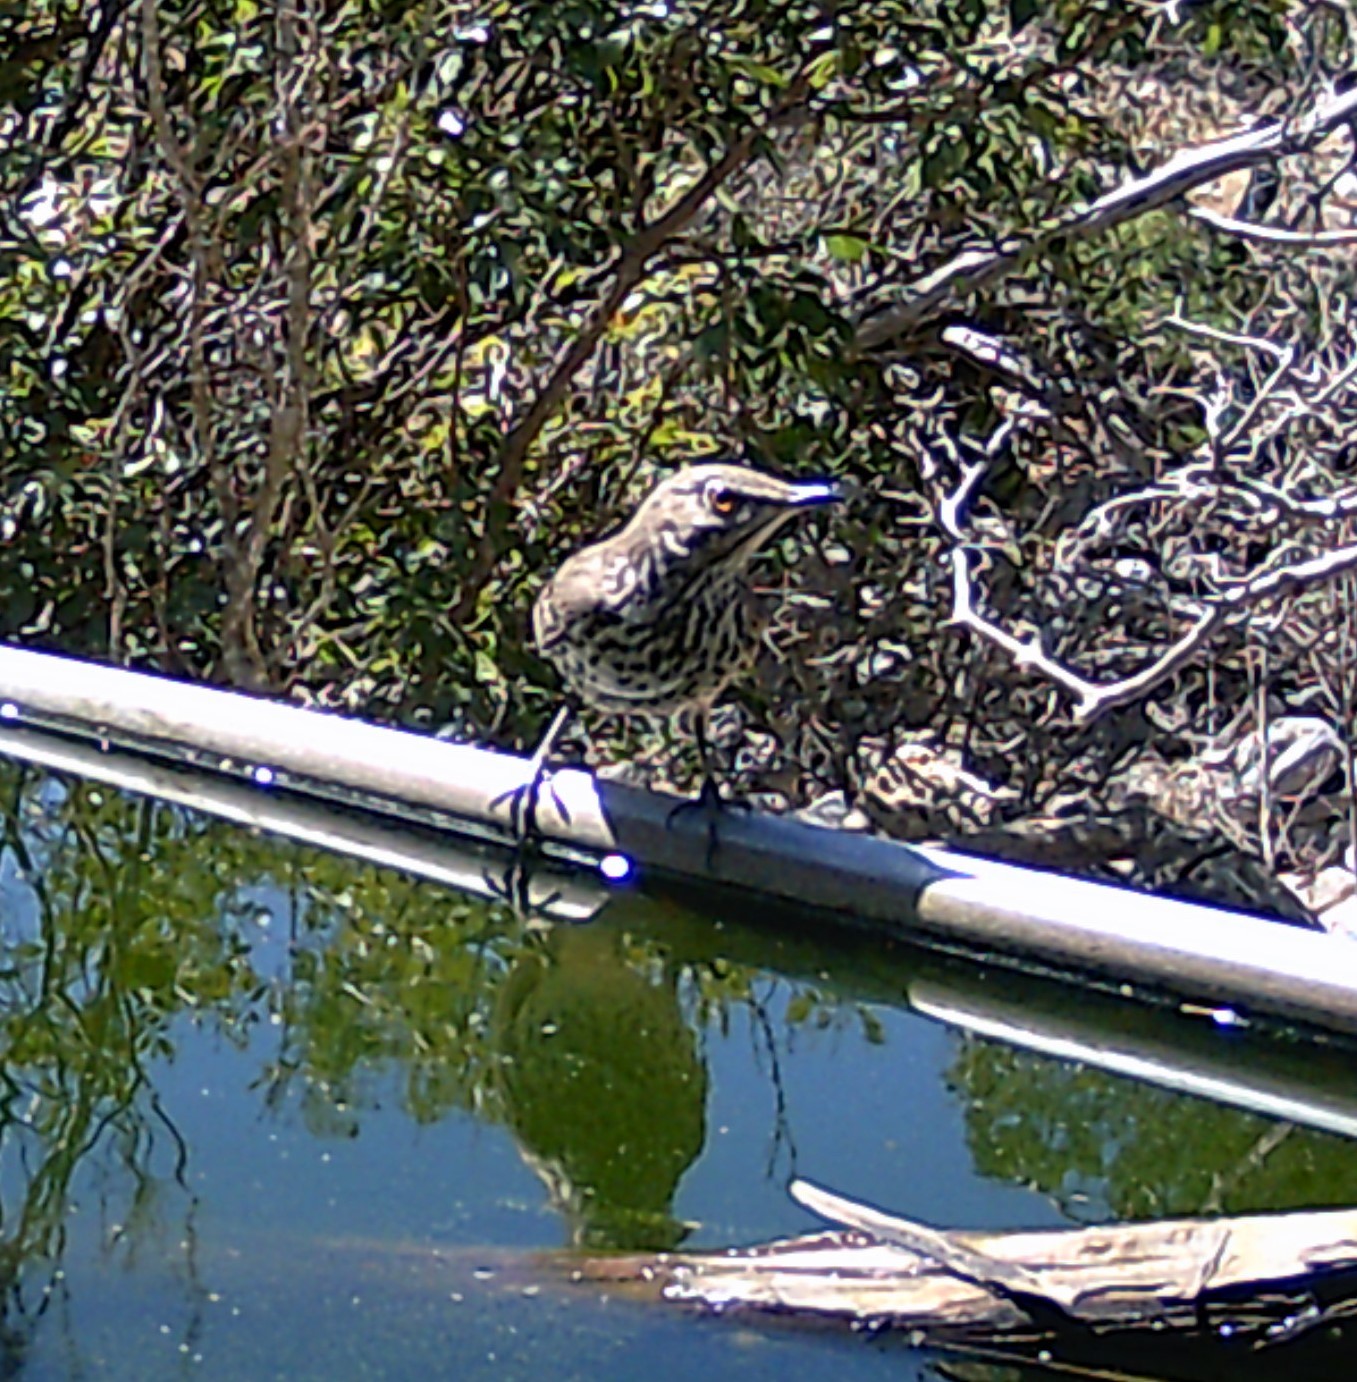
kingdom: Animalia
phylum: Chordata
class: Aves
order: Passeriformes
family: Mimidae
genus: Oreoscoptes
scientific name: Oreoscoptes montanus
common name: Sage thrasher
